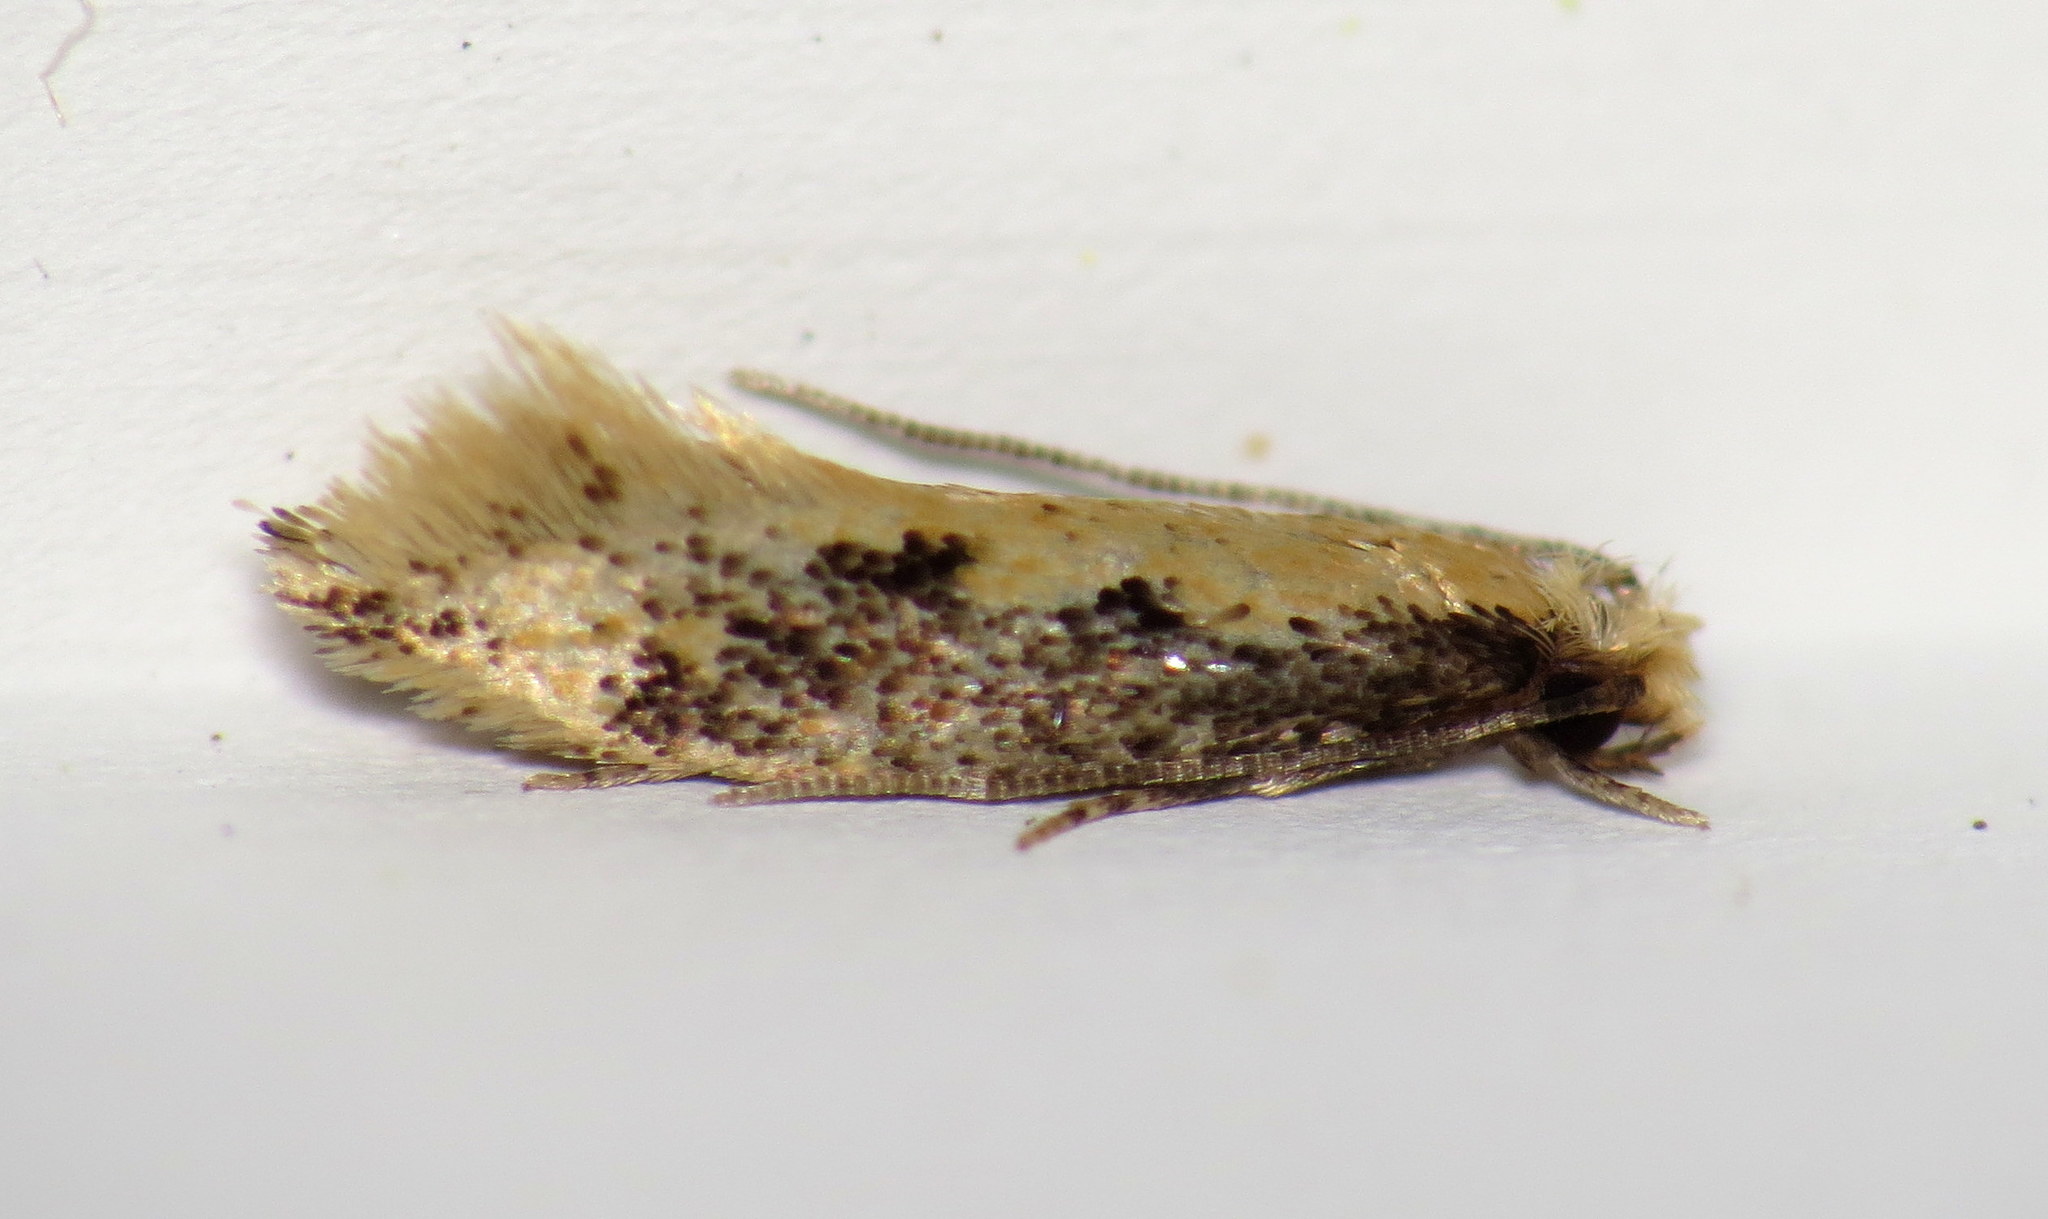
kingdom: Animalia
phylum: Arthropoda
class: Insecta
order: Lepidoptera
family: Tineidae
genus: Tinea
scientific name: Tinea mandarinella
